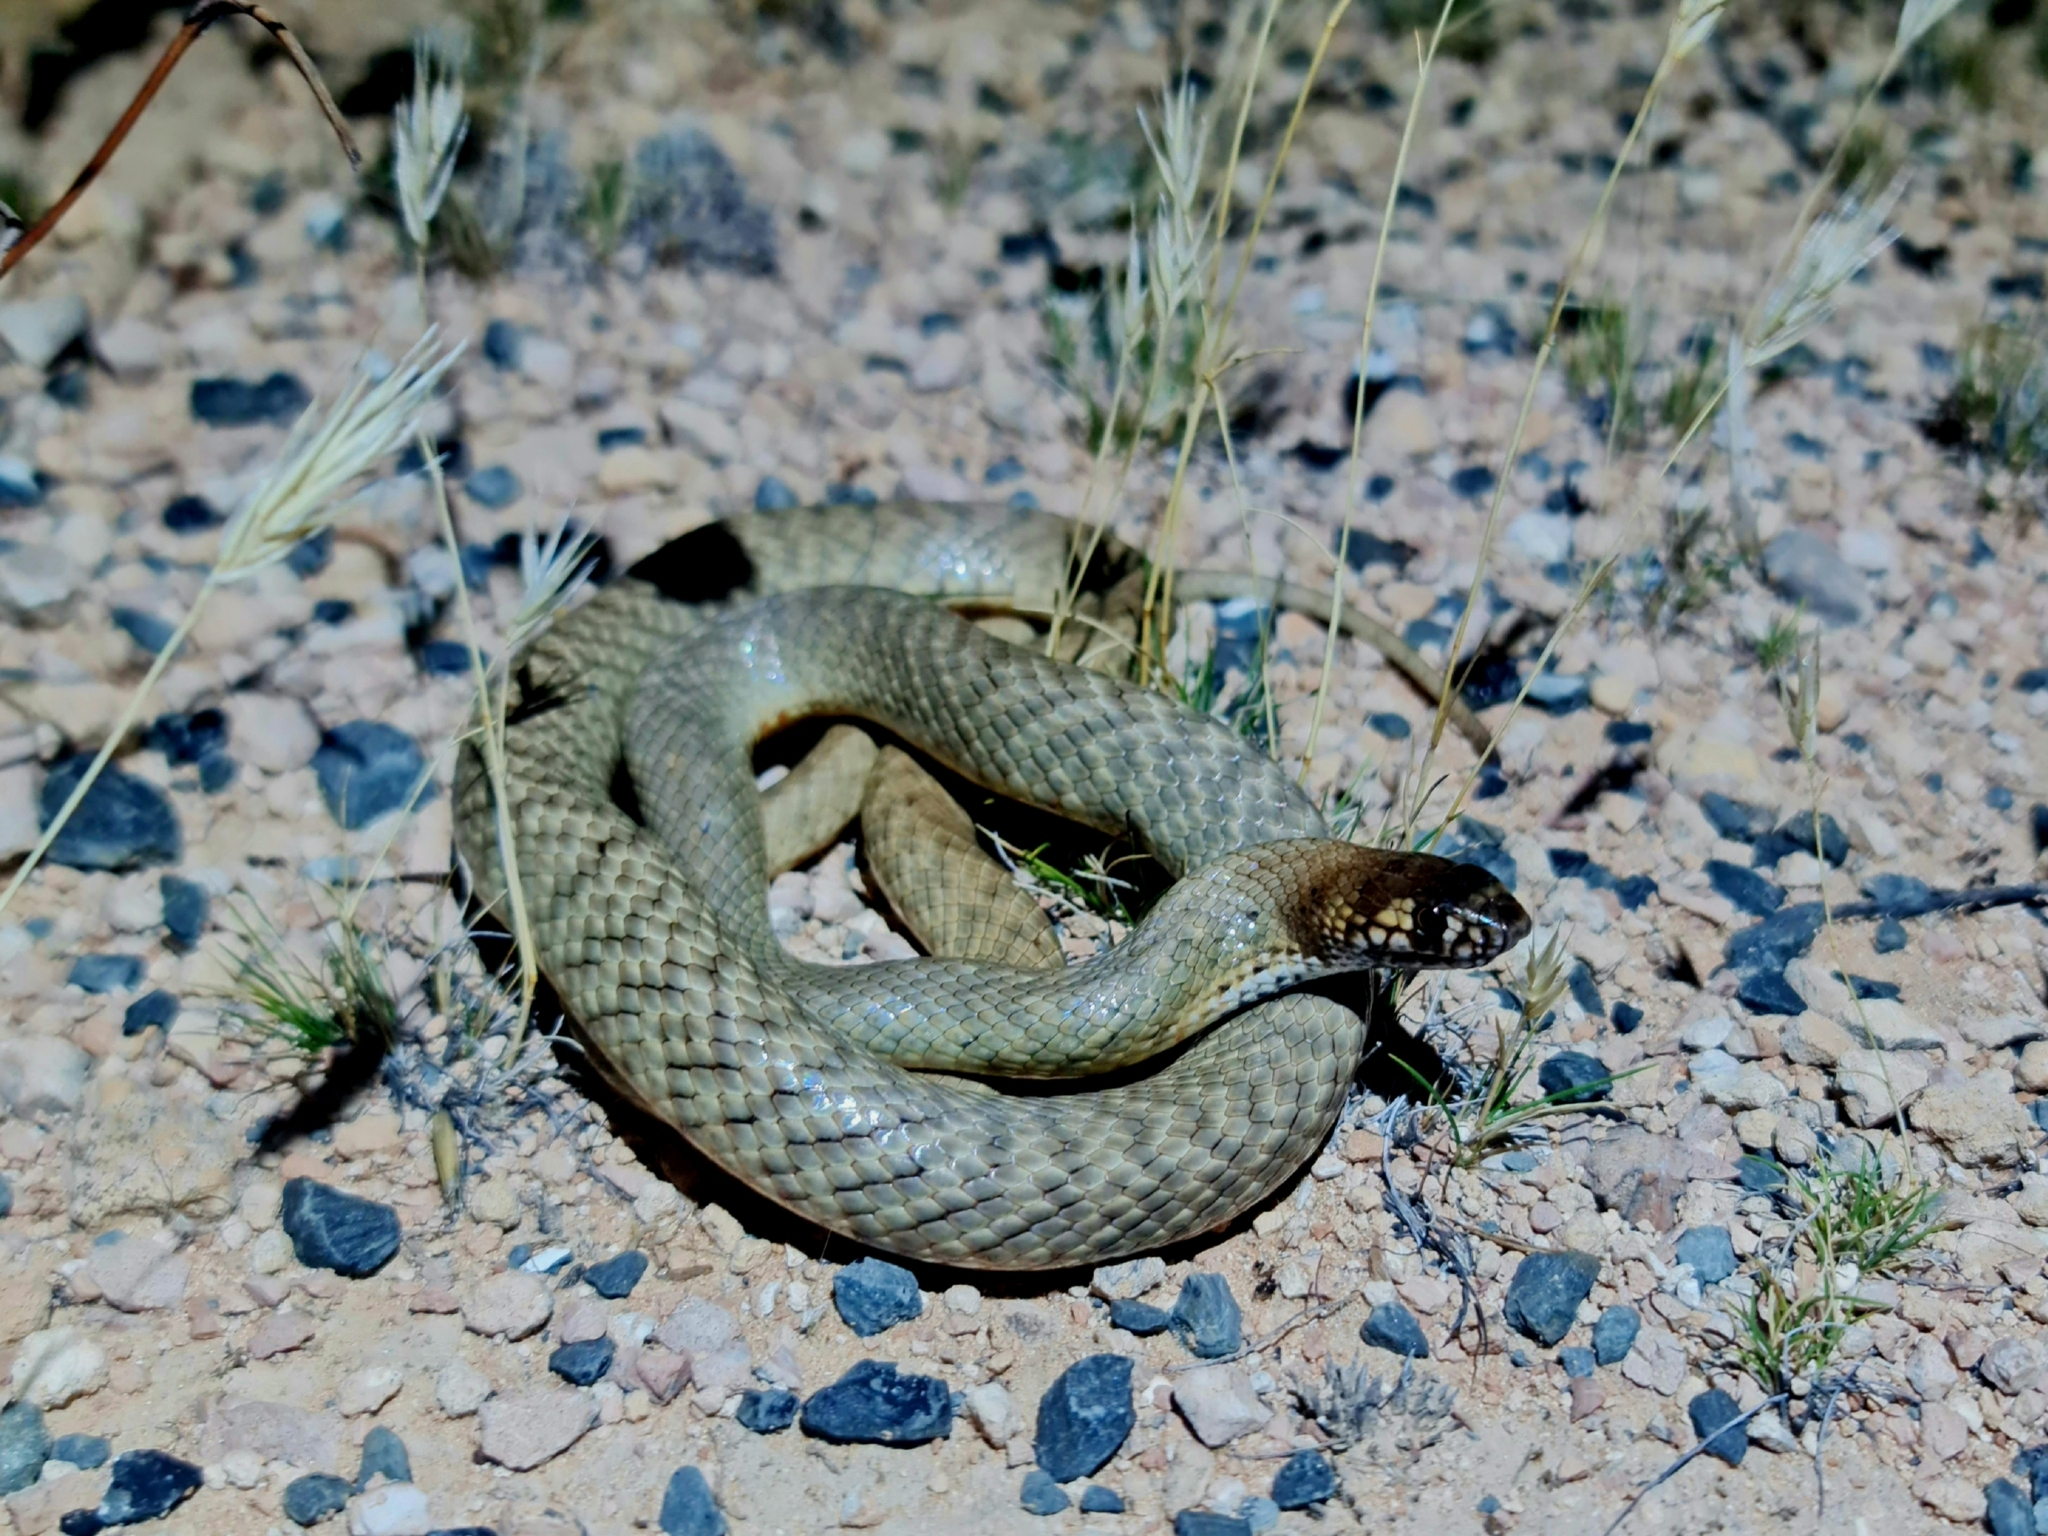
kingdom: Animalia
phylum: Chordata
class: Squamata
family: Elapidae
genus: Pseudonaja
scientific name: Pseudonaja aspidorhyncha
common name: Strap-snouted brown snake
